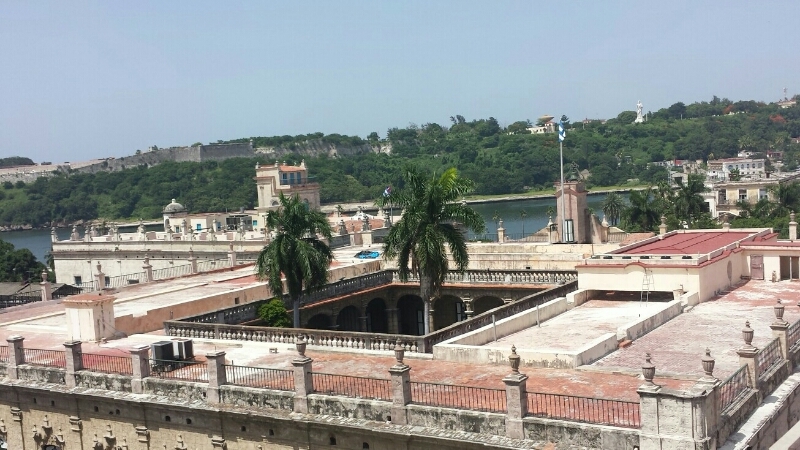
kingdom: Plantae
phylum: Tracheophyta
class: Liliopsida
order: Arecales
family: Arecaceae
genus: Roystonea
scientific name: Roystonea regia
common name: Florida royal palm
